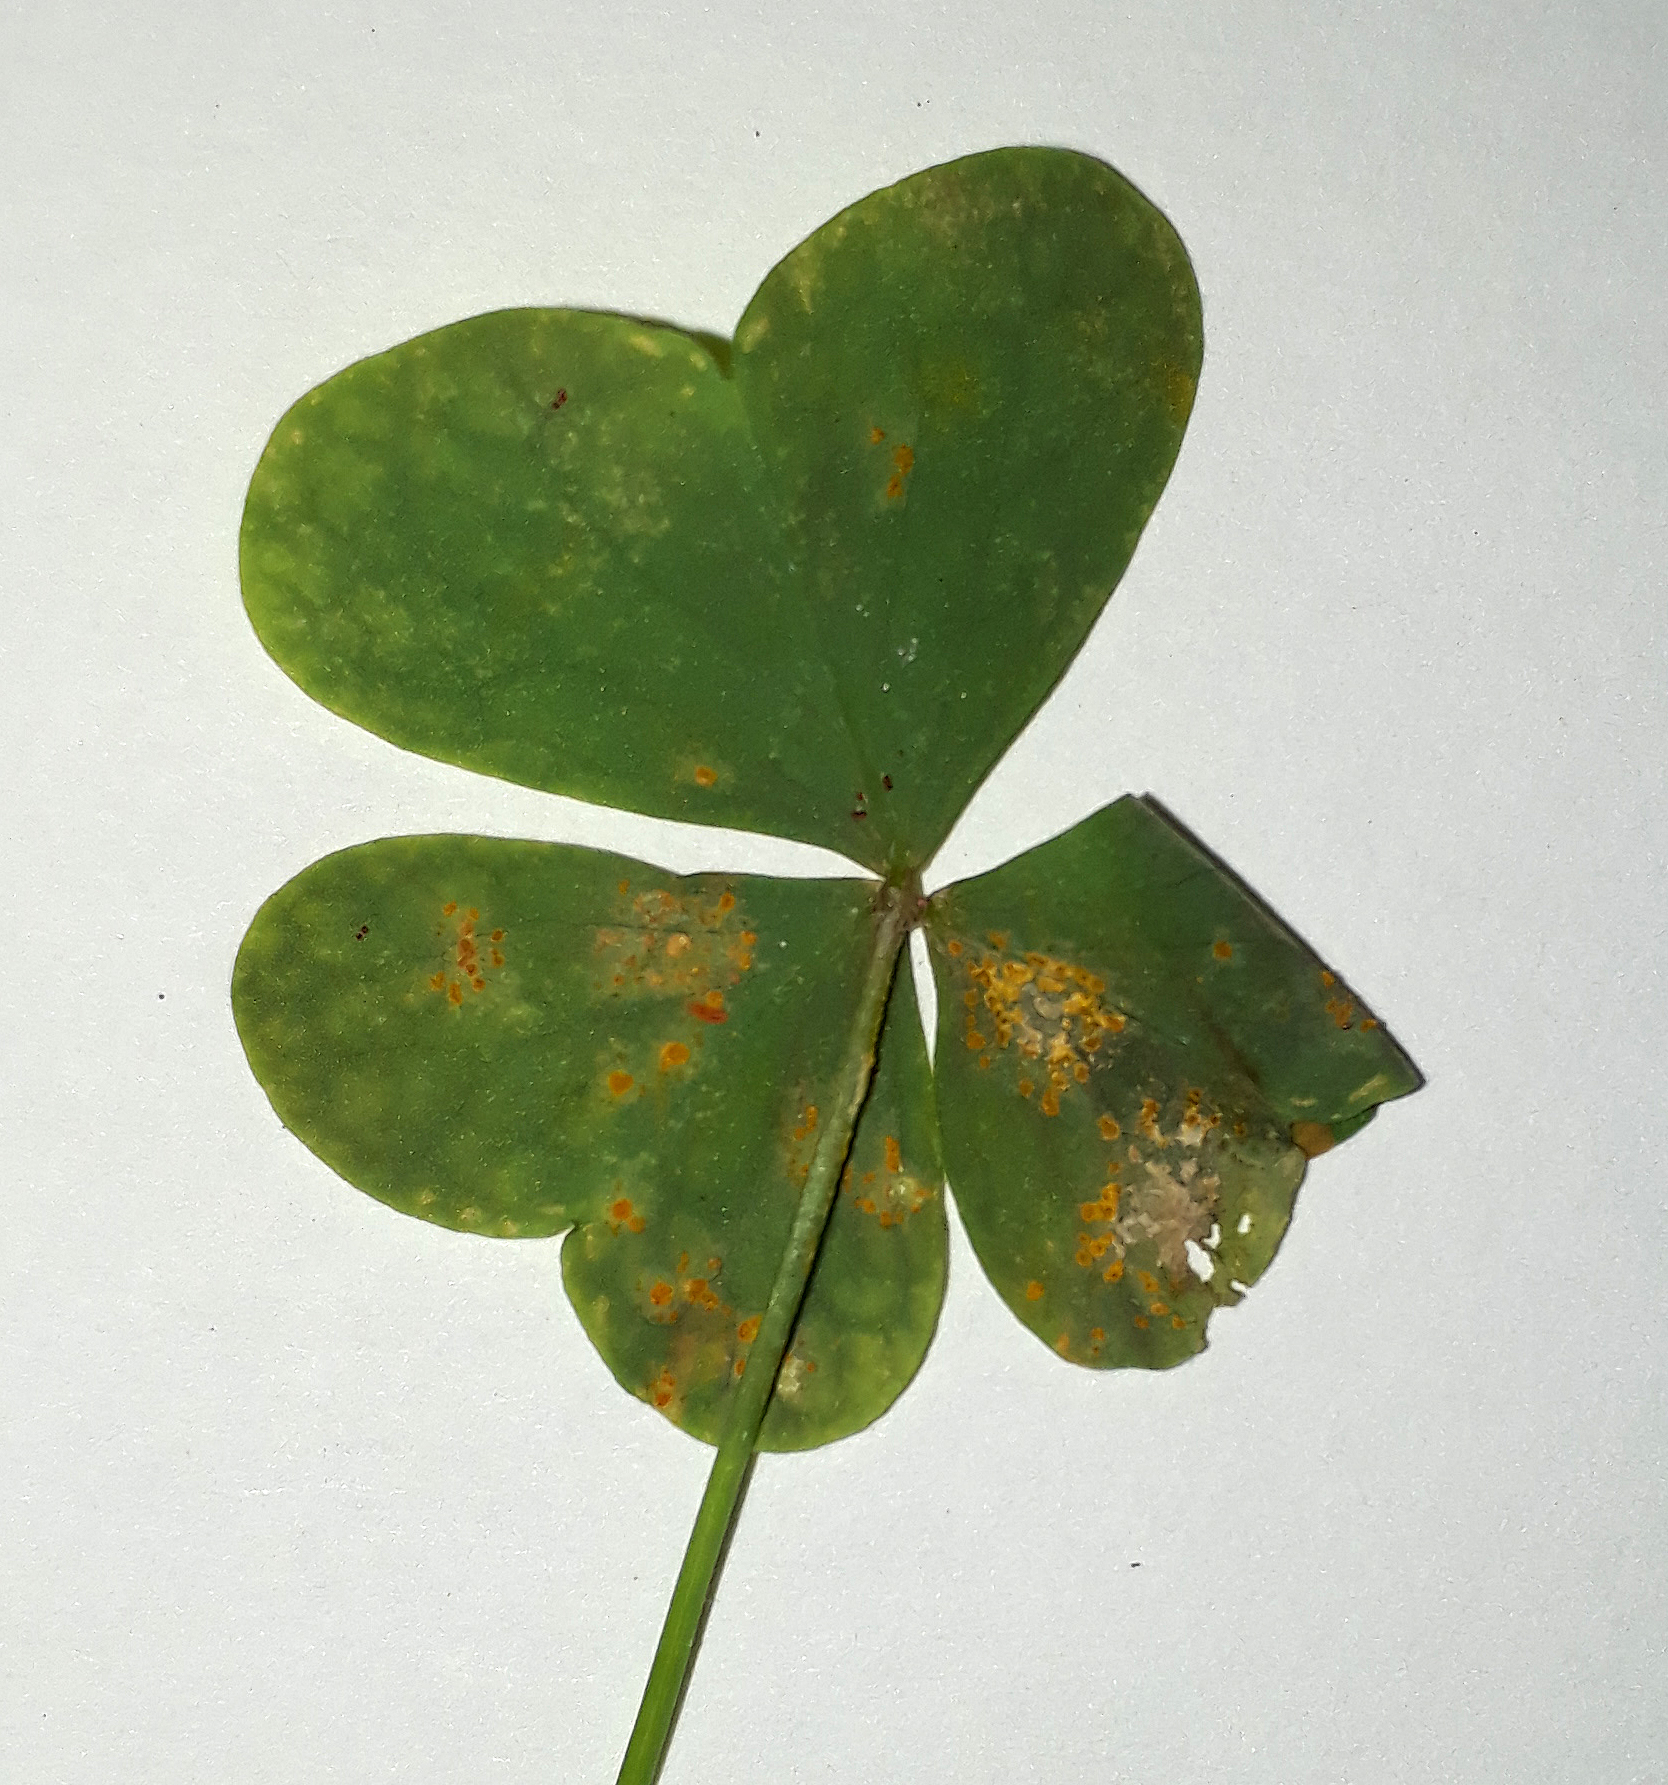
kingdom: Fungi
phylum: Basidiomycota
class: Pucciniomycetes
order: Pucciniales
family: Pucciniaceae
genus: Puccinia
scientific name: Puccinia oxalidis
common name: Oxalis rust
